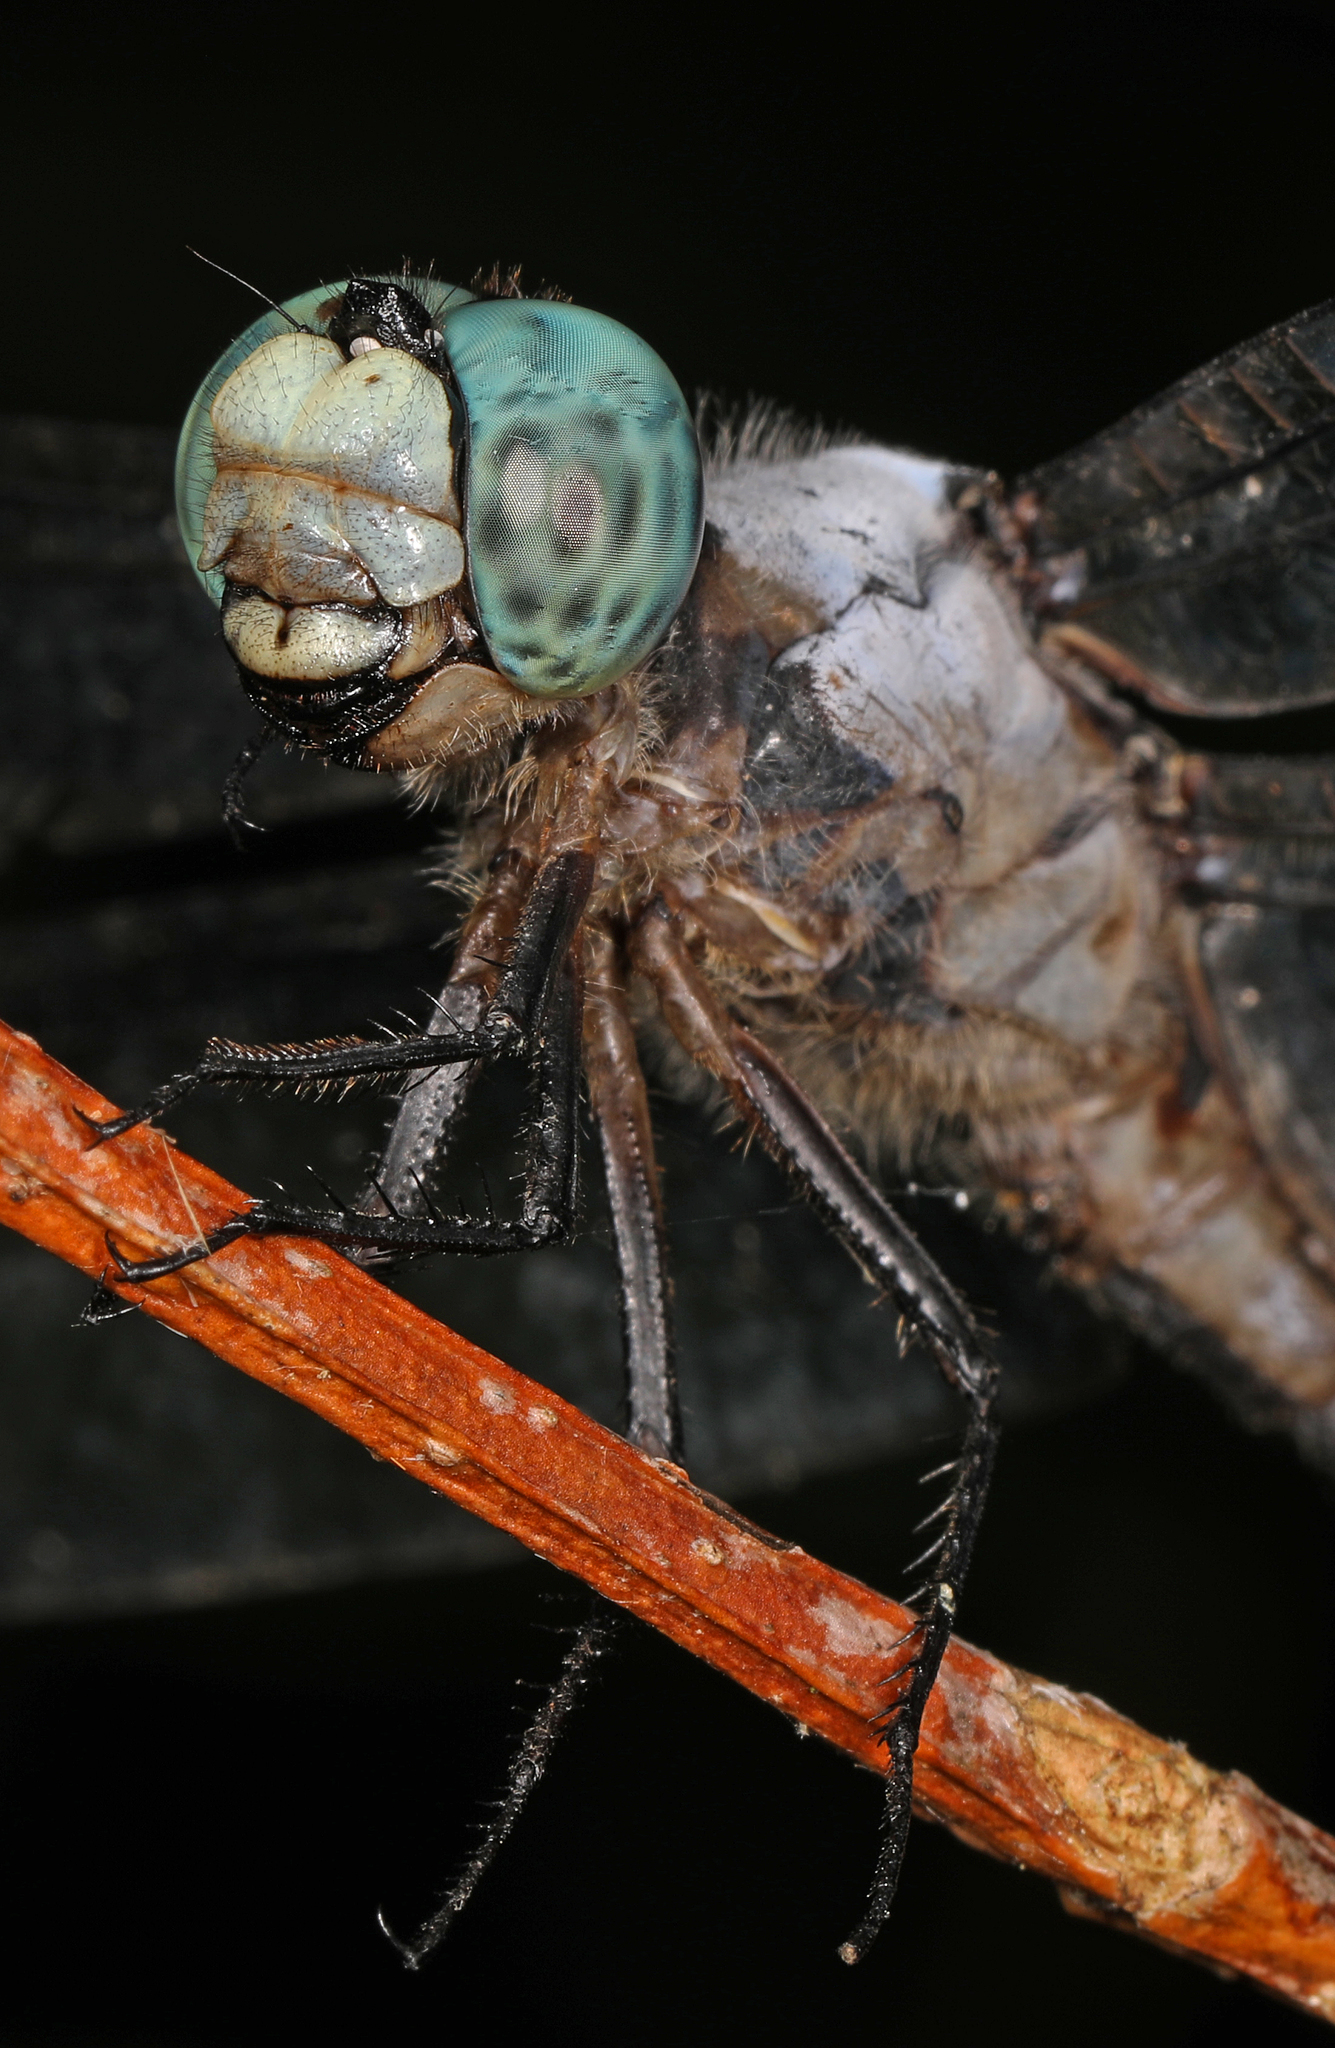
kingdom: Animalia
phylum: Arthropoda
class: Insecta
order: Odonata
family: Libellulidae
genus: Libellula
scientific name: Libellula vibrans
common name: Great blue skimmer
